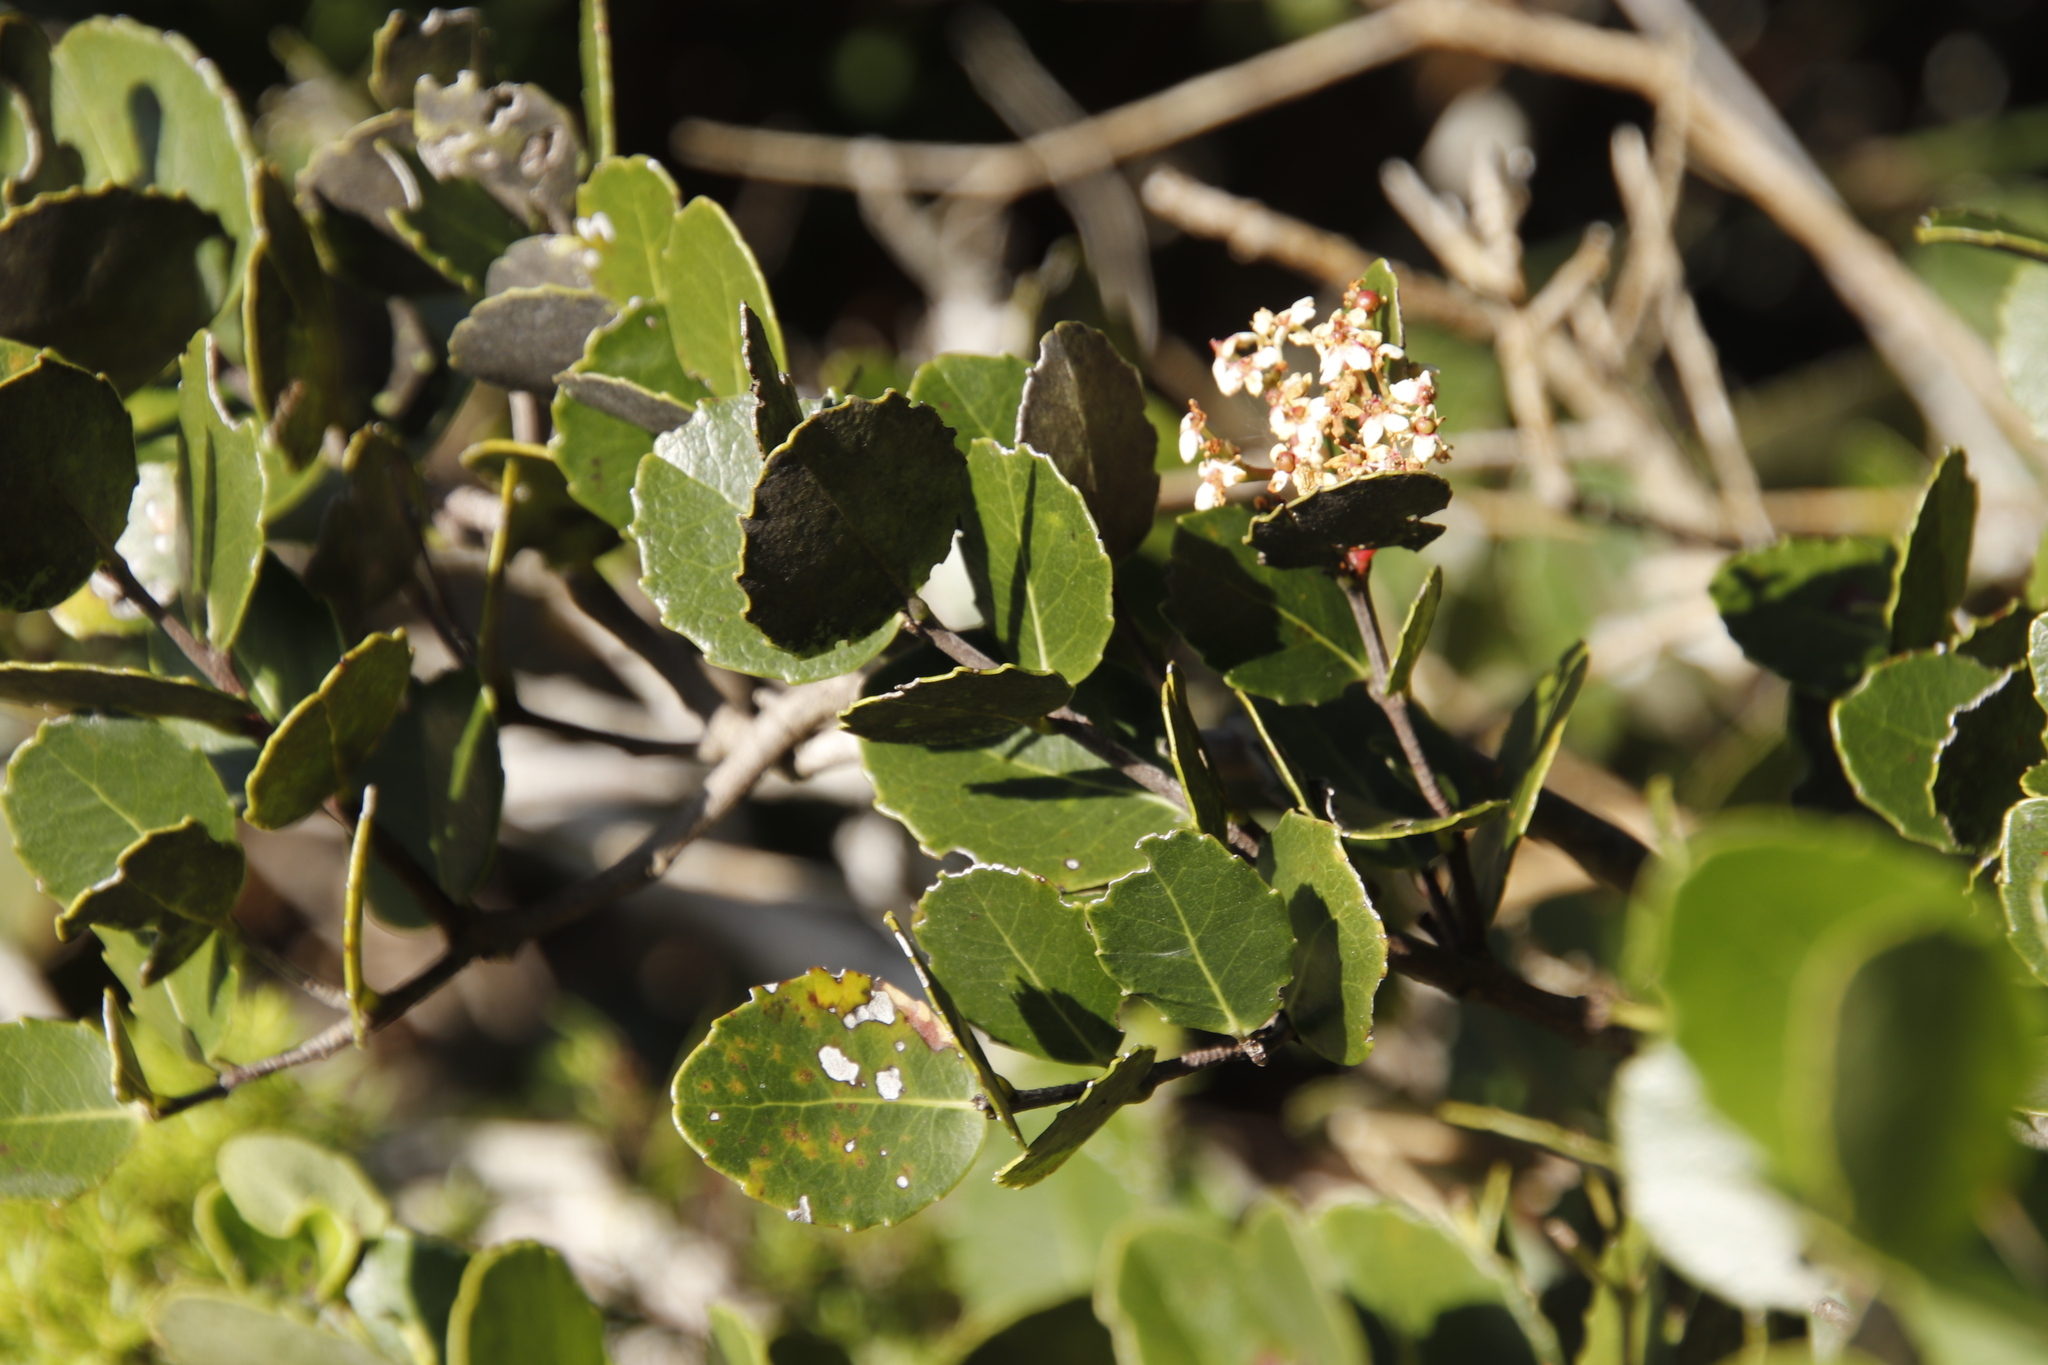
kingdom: Plantae
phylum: Tracheophyta
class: Magnoliopsida
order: Celastrales
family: Celastraceae
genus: Cassine
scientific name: Cassine peragua
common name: Cape saffron
